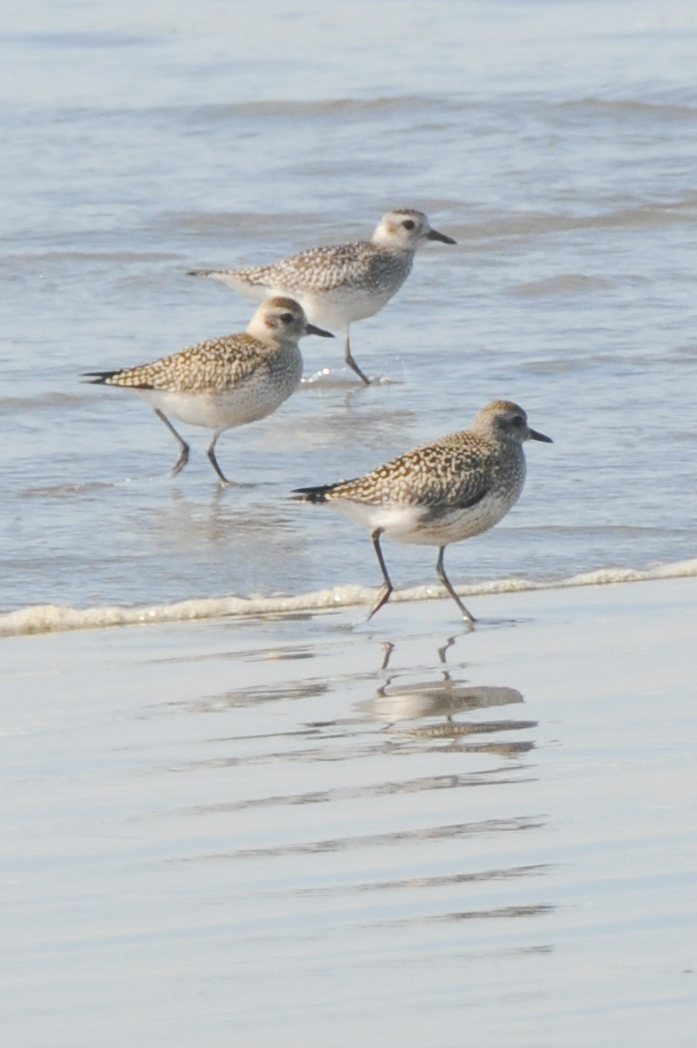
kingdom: Animalia
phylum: Chordata
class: Aves
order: Charadriiformes
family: Charadriidae
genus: Pluvialis
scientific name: Pluvialis squatarola
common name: Grey plover
